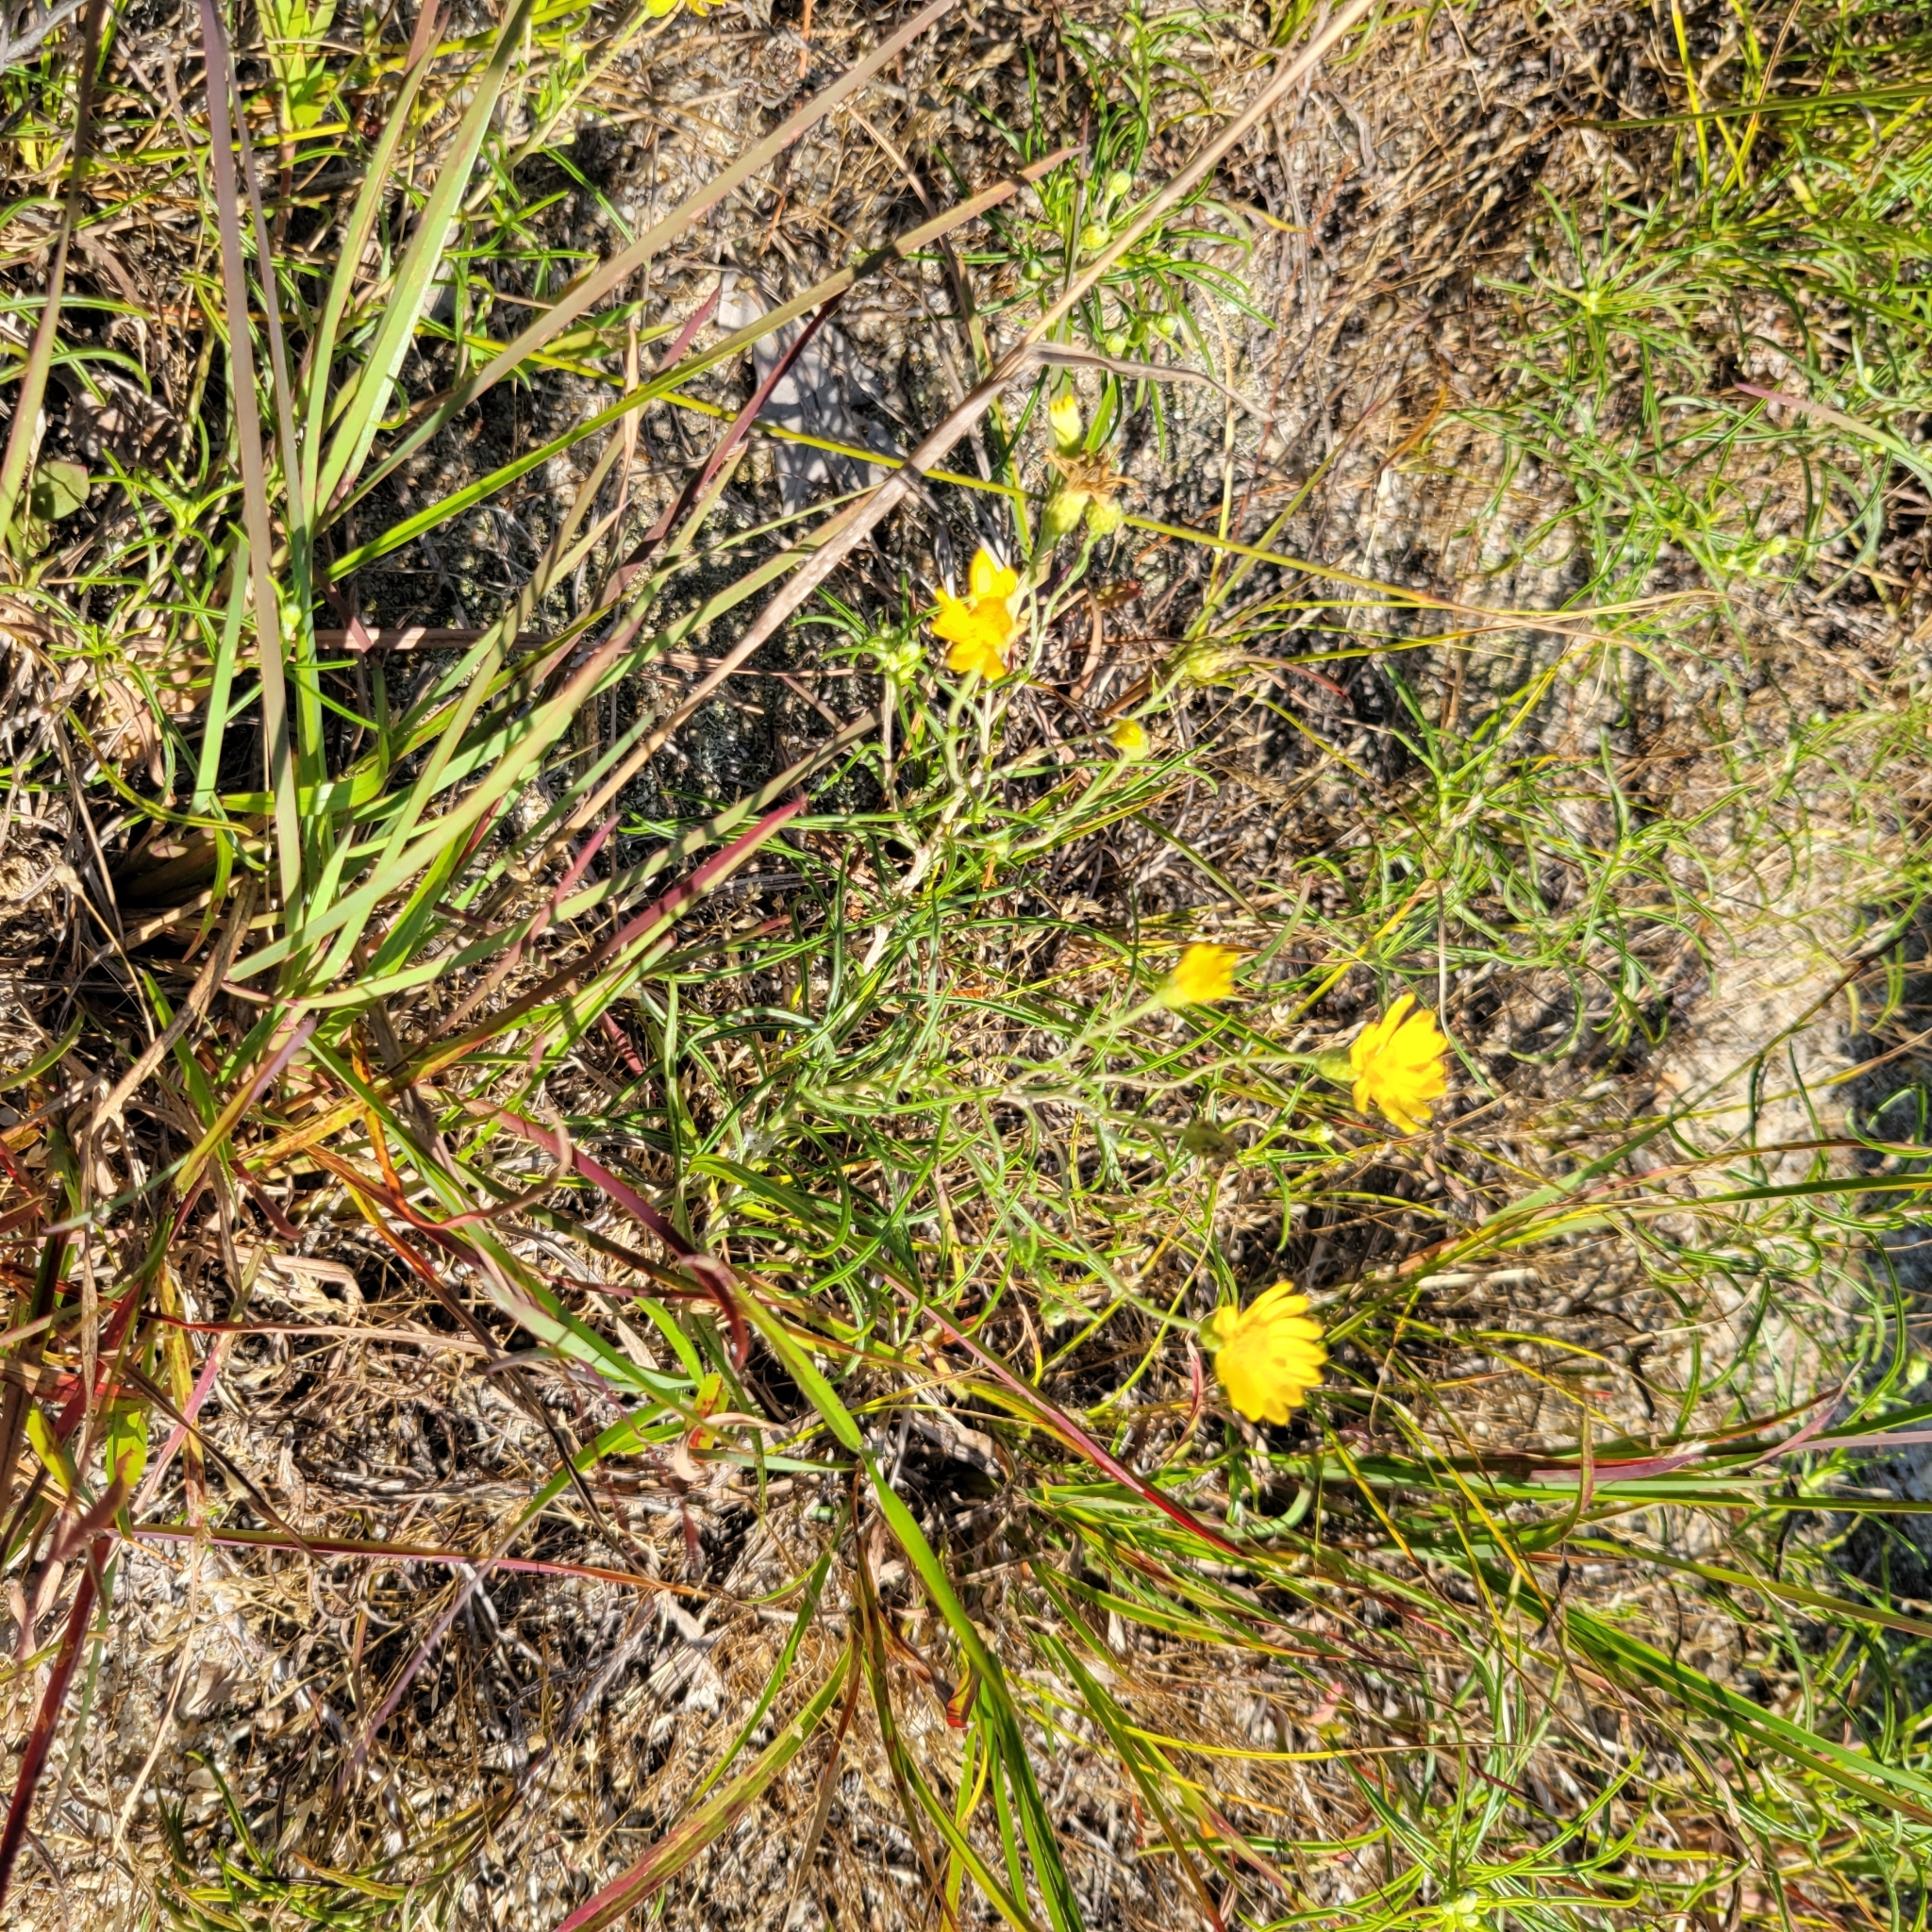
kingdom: Plantae
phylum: Tracheophyta
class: Magnoliopsida
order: Asterales
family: Asteraceae
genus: Pityopsis
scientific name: Pityopsis falcata
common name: Sickle-leaved goldenaster
